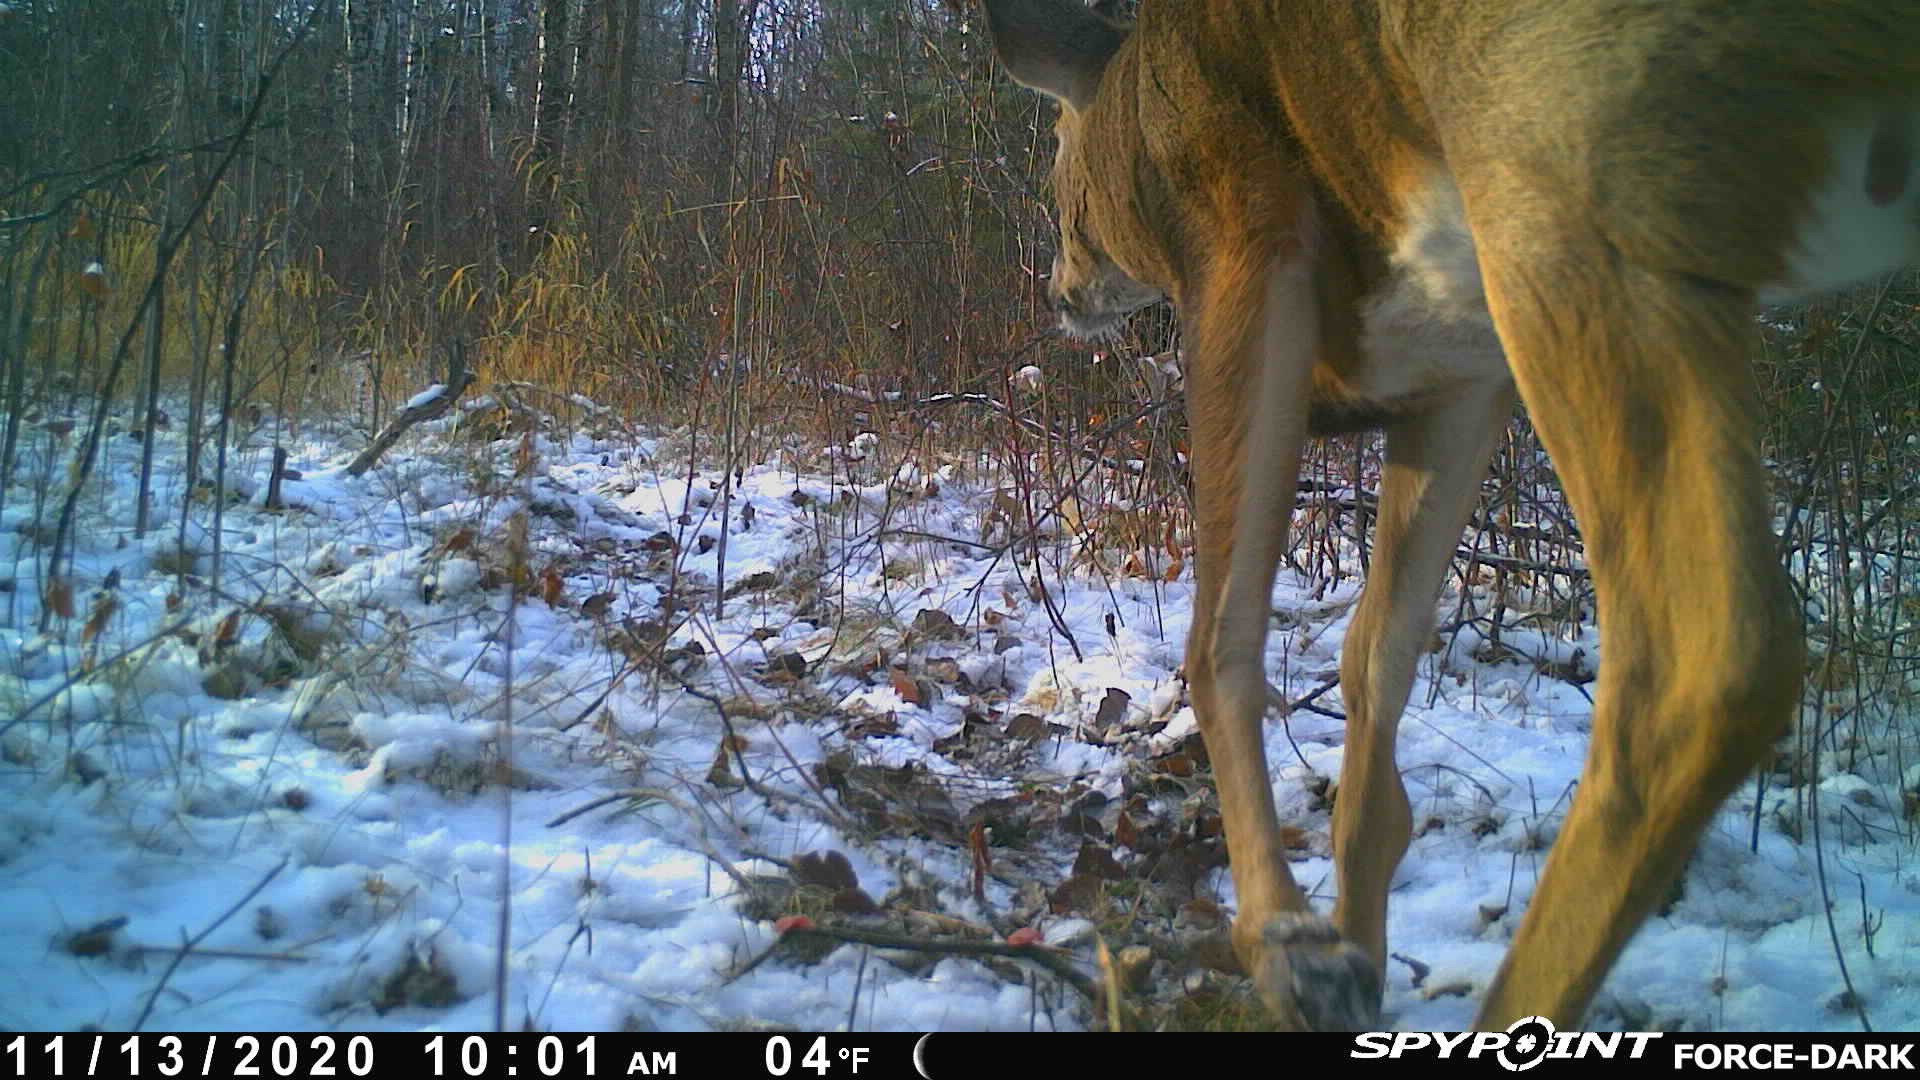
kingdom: Animalia
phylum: Chordata
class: Mammalia
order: Artiodactyla
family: Cervidae
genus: Odocoileus
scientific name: Odocoileus virginianus
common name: White-tailed deer
